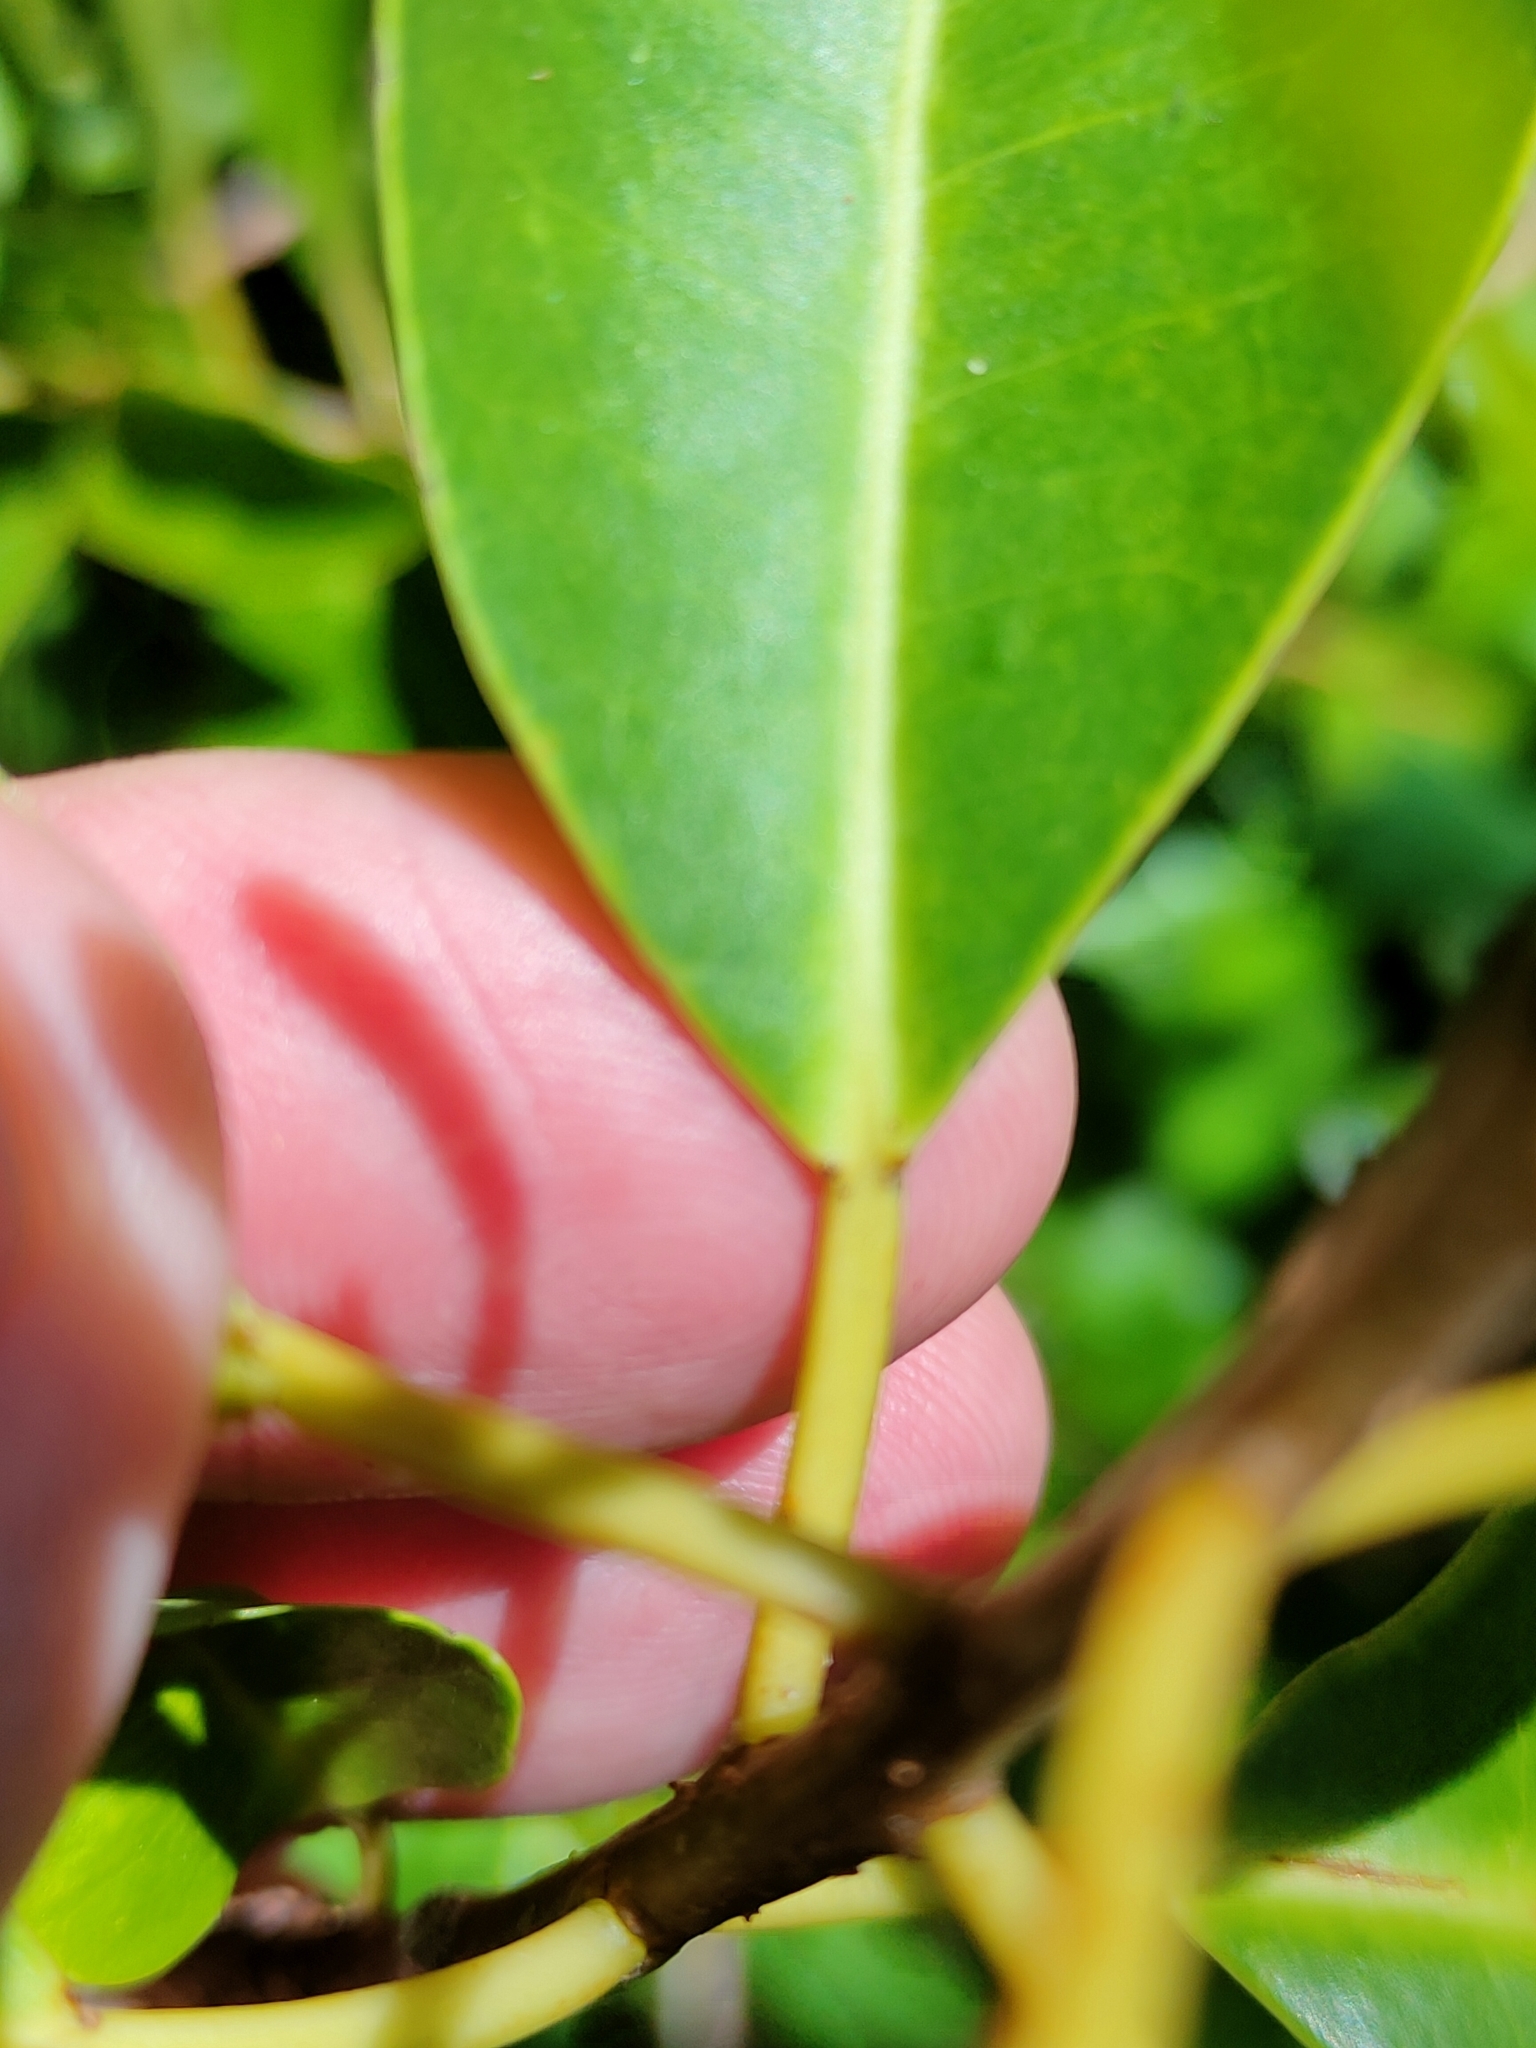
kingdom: Plantae
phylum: Tracheophyta
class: Magnoliopsida
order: Malpighiales
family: Euphorbiaceae
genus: Excoecaria
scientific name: Excoecaria agallocha
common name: River poisontree
